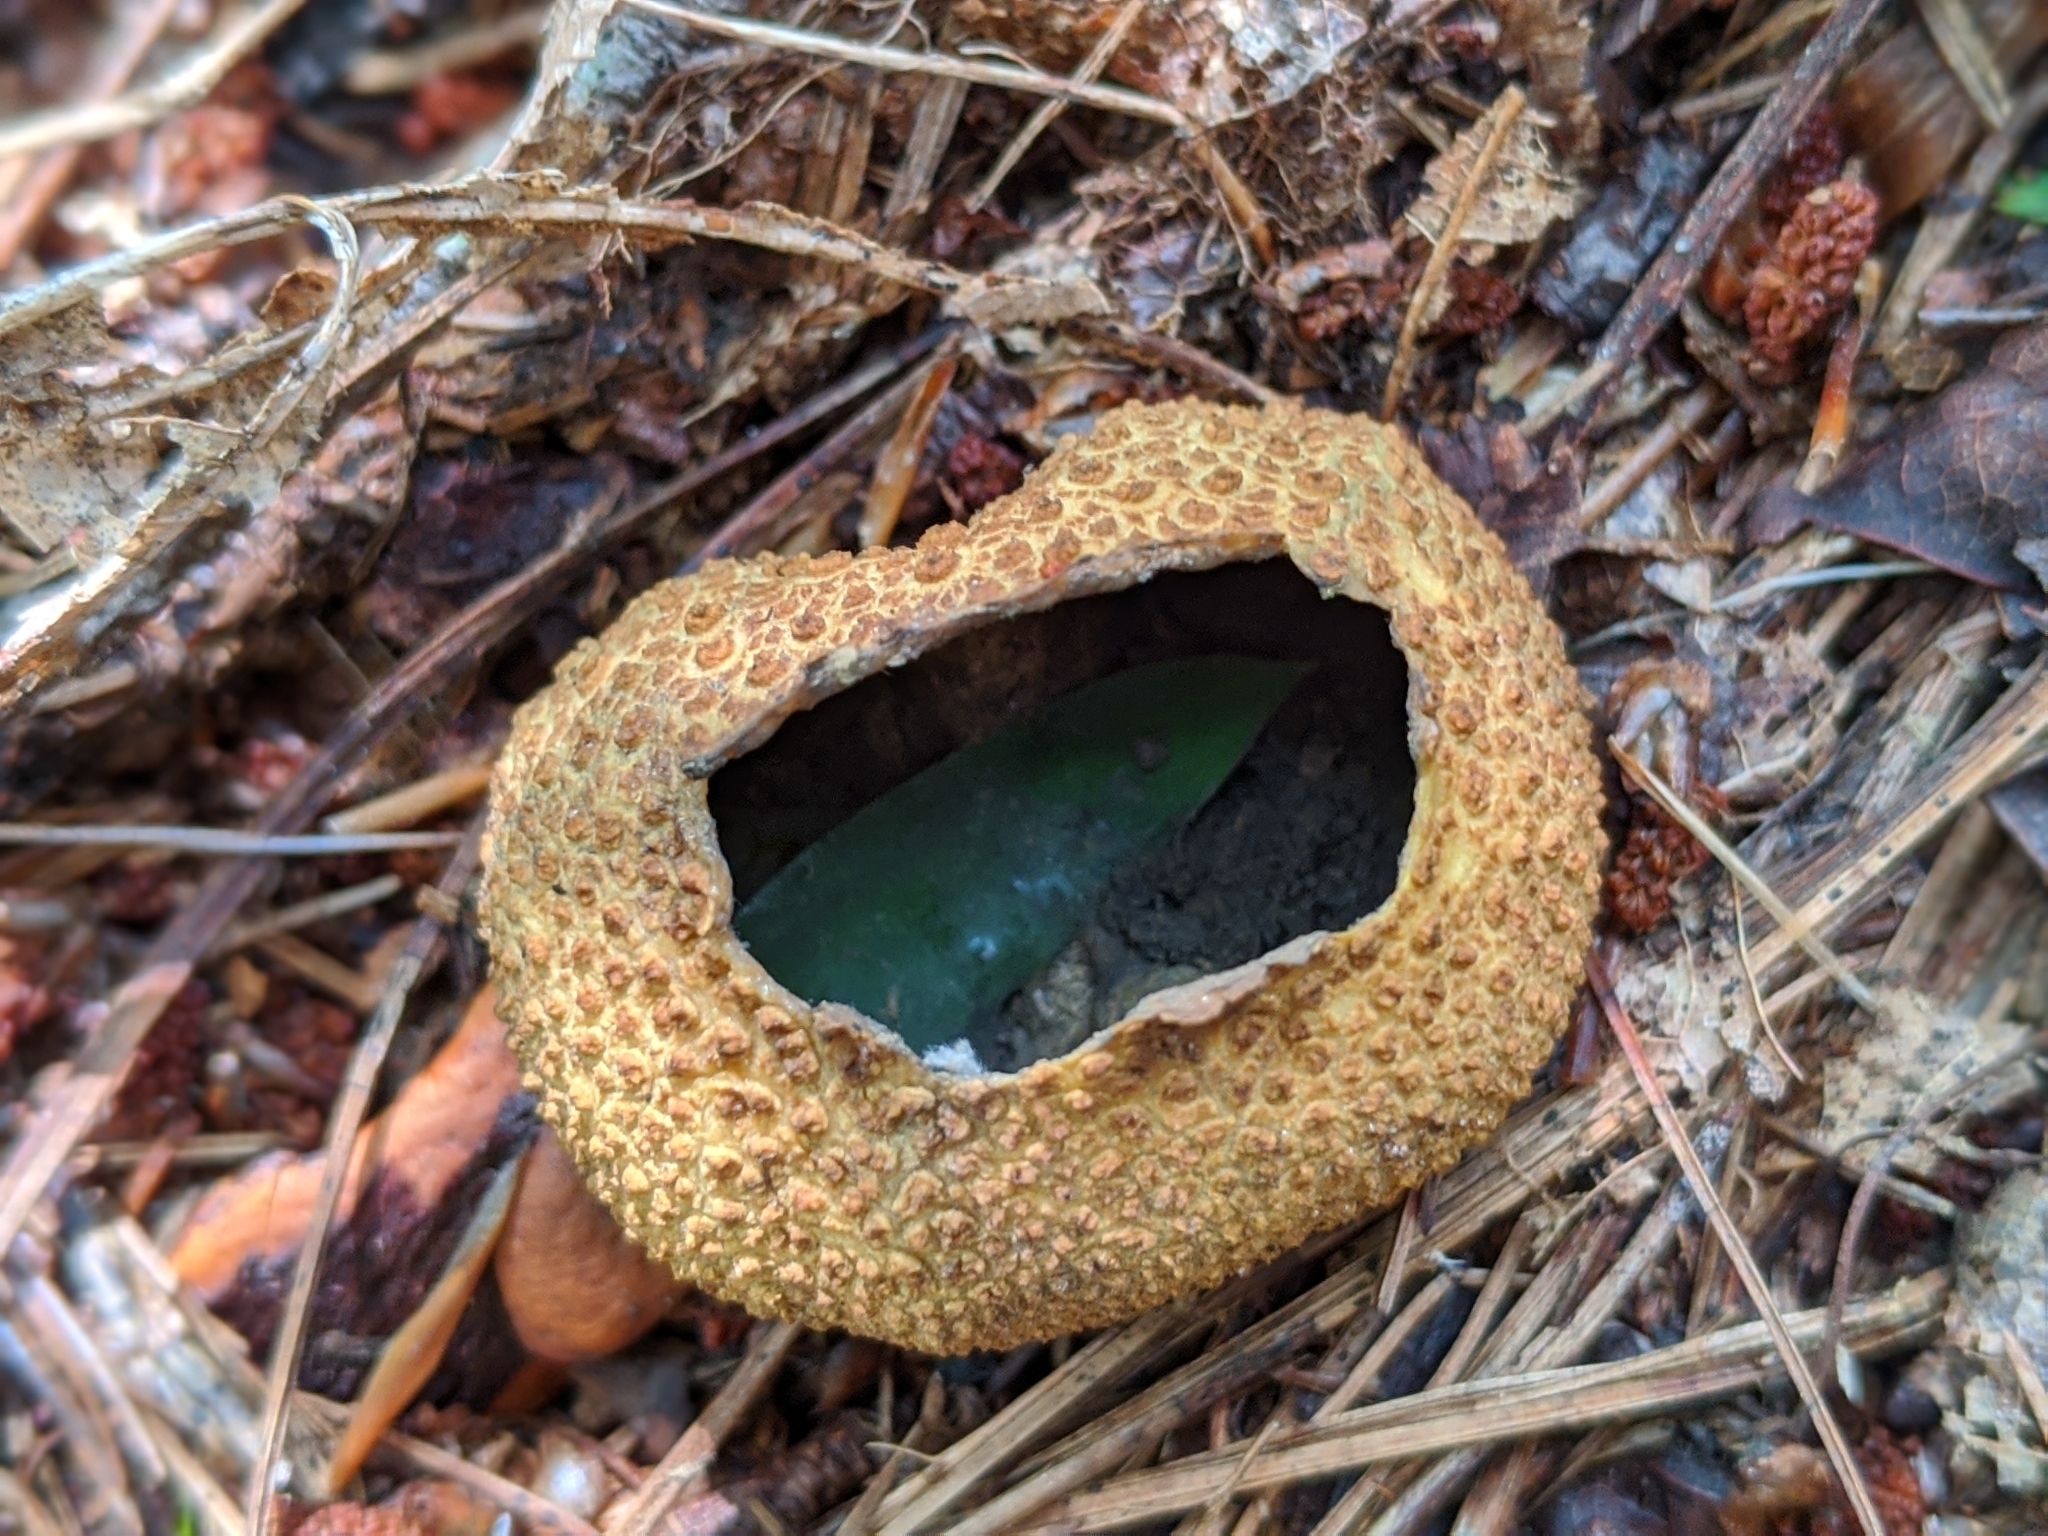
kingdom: Fungi
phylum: Basidiomycota
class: Agaricomycetes
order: Boletales
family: Sclerodermataceae
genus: Scleroderma
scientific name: Scleroderma citrinum
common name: Common earthball
